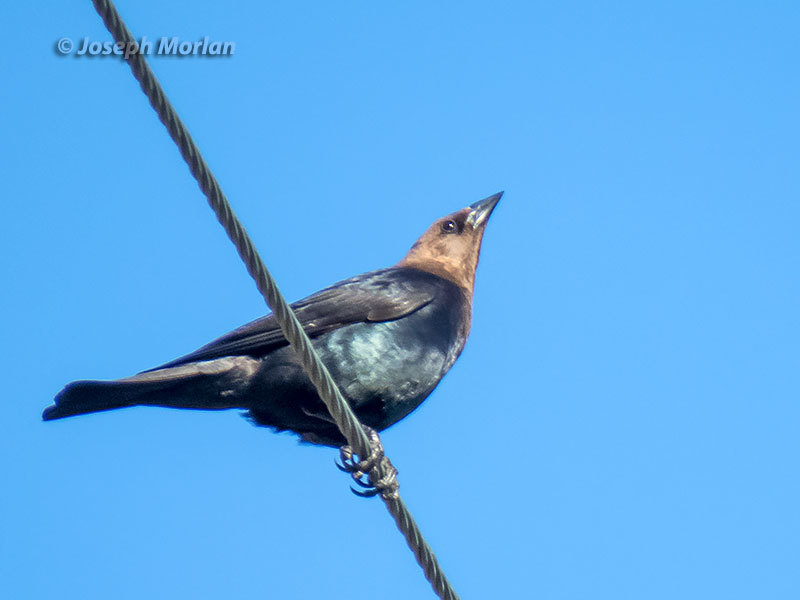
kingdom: Animalia
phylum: Chordata
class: Aves
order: Passeriformes
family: Icteridae
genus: Molothrus
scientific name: Molothrus ater
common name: Brown-headed cowbird
